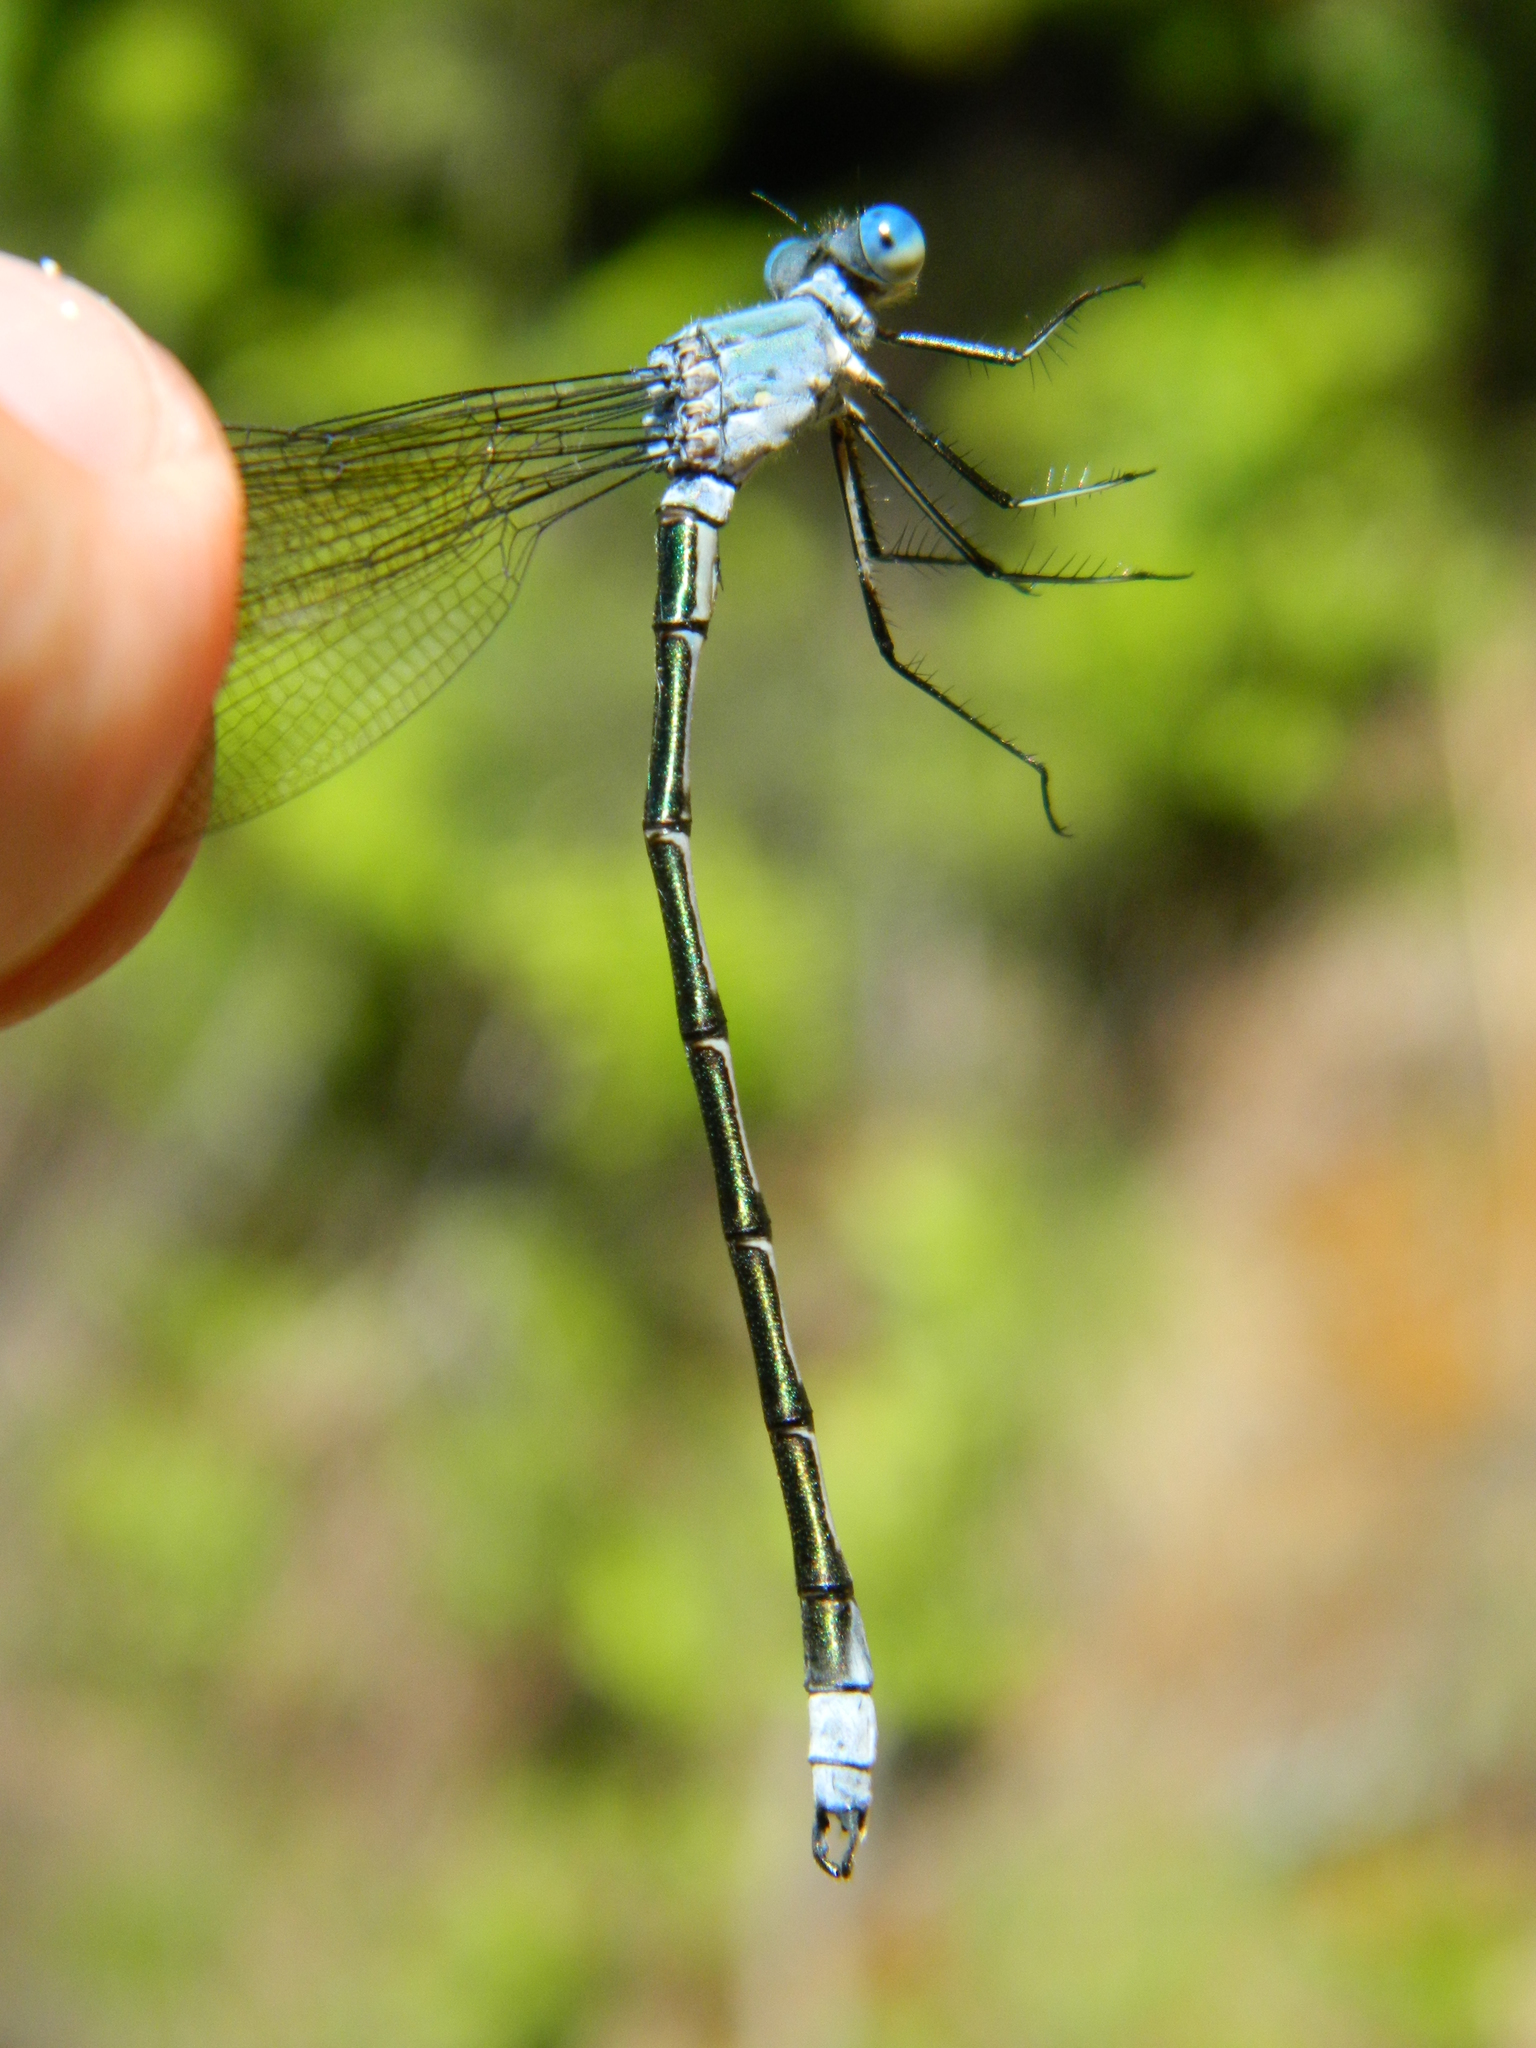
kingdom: Animalia
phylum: Arthropoda
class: Insecta
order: Odonata
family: Lestidae
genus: Lestes
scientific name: Lestes eurinus
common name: Amber-winged spreadwing
